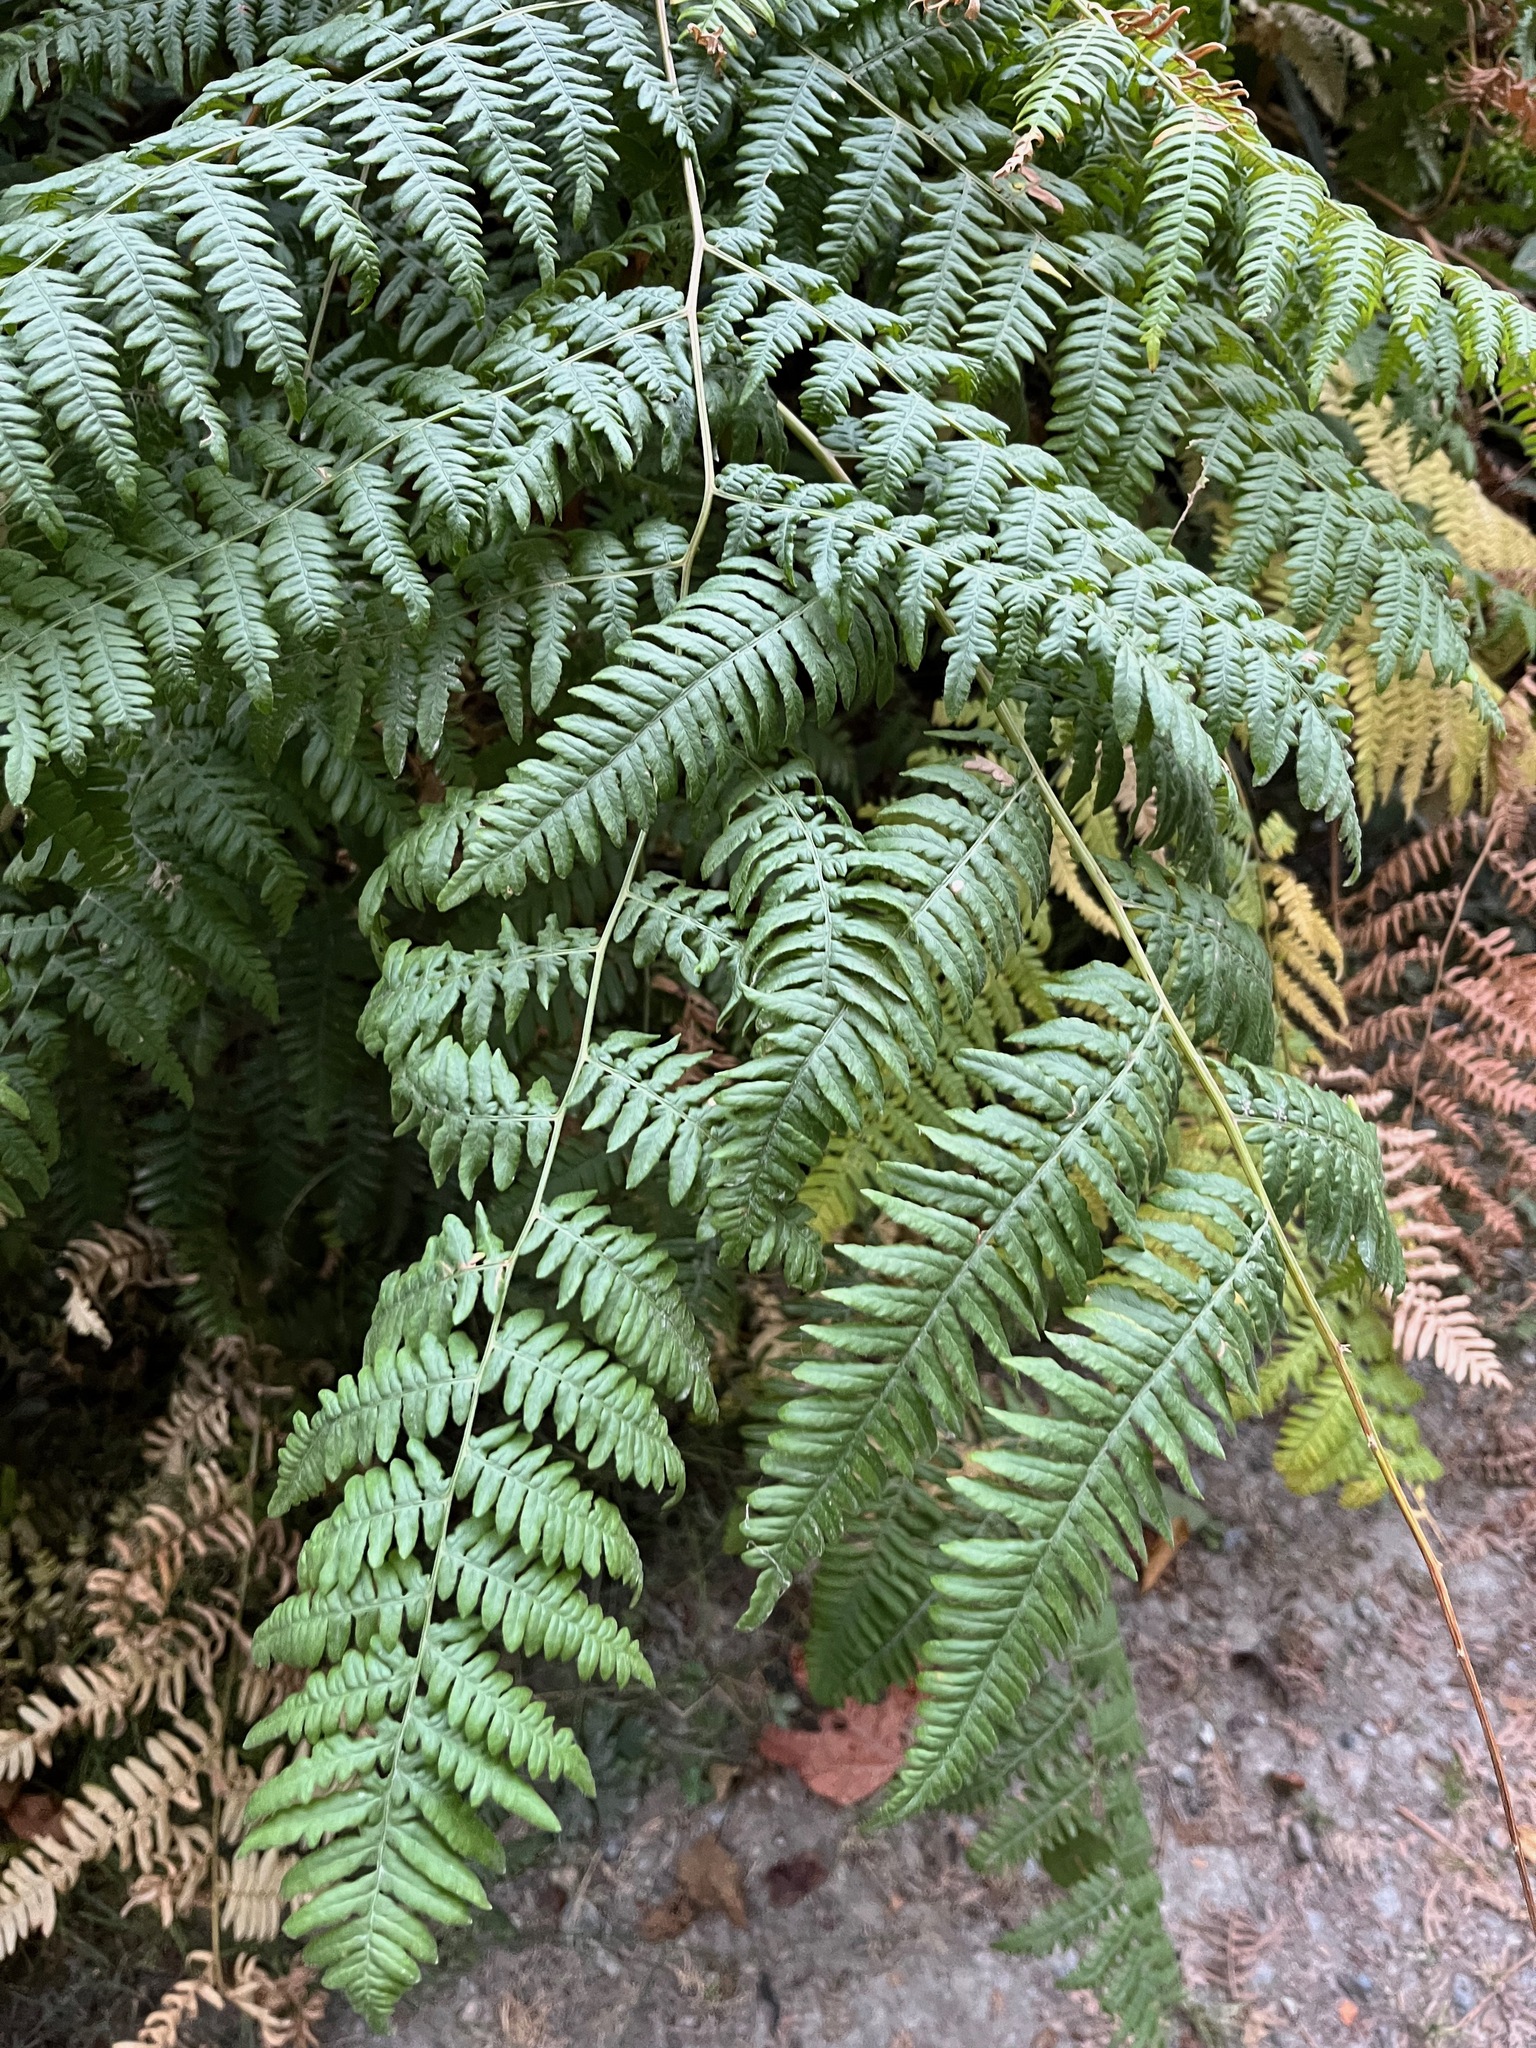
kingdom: Plantae
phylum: Tracheophyta
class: Polypodiopsida
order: Polypodiales
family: Dennstaedtiaceae
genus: Pteridium
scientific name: Pteridium aquilinum
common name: Bracken
